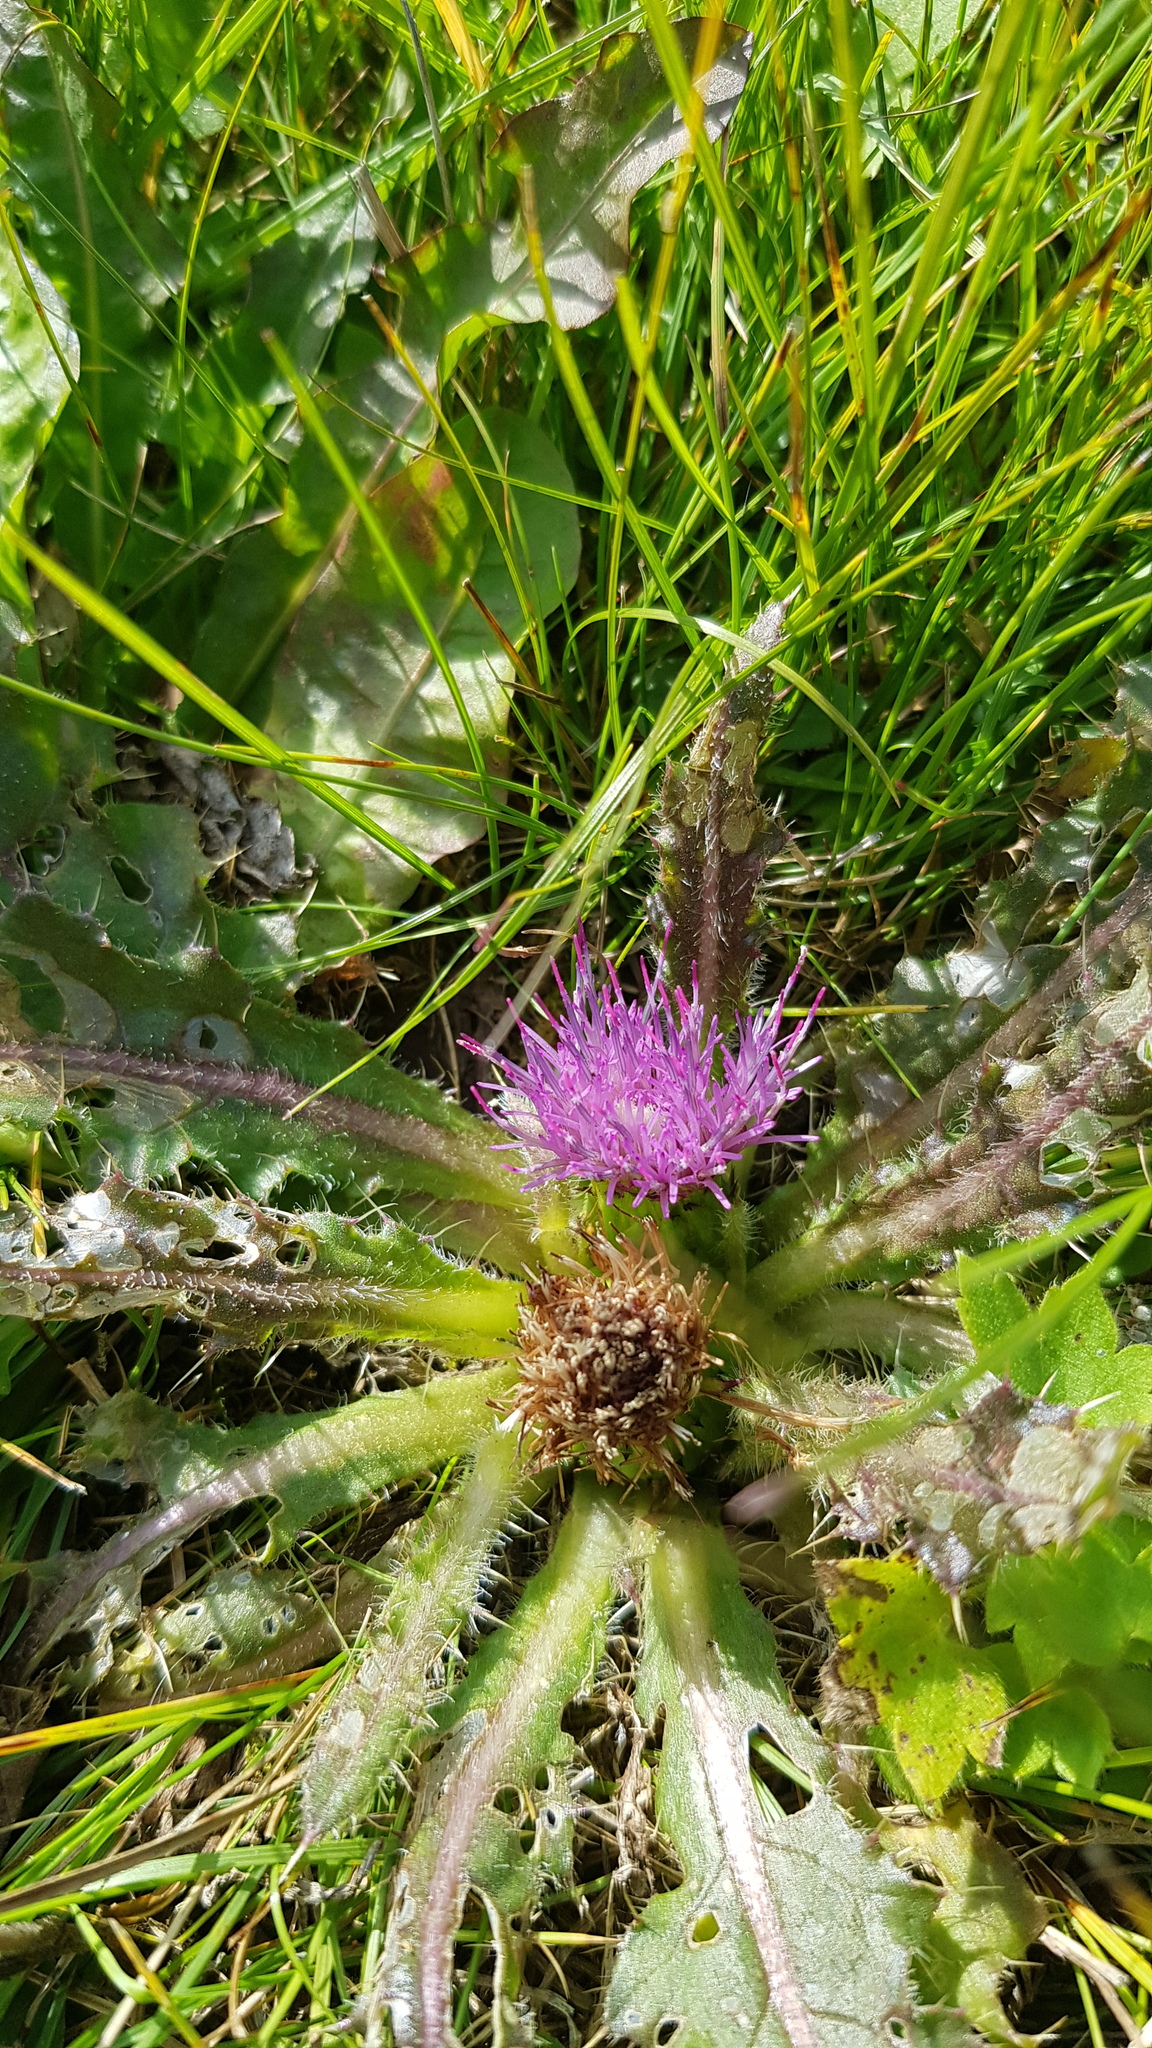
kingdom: Plantae
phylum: Tracheophyta
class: Magnoliopsida
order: Asterales
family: Asteraceae
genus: Cirsium
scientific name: Cirsium esculentum
